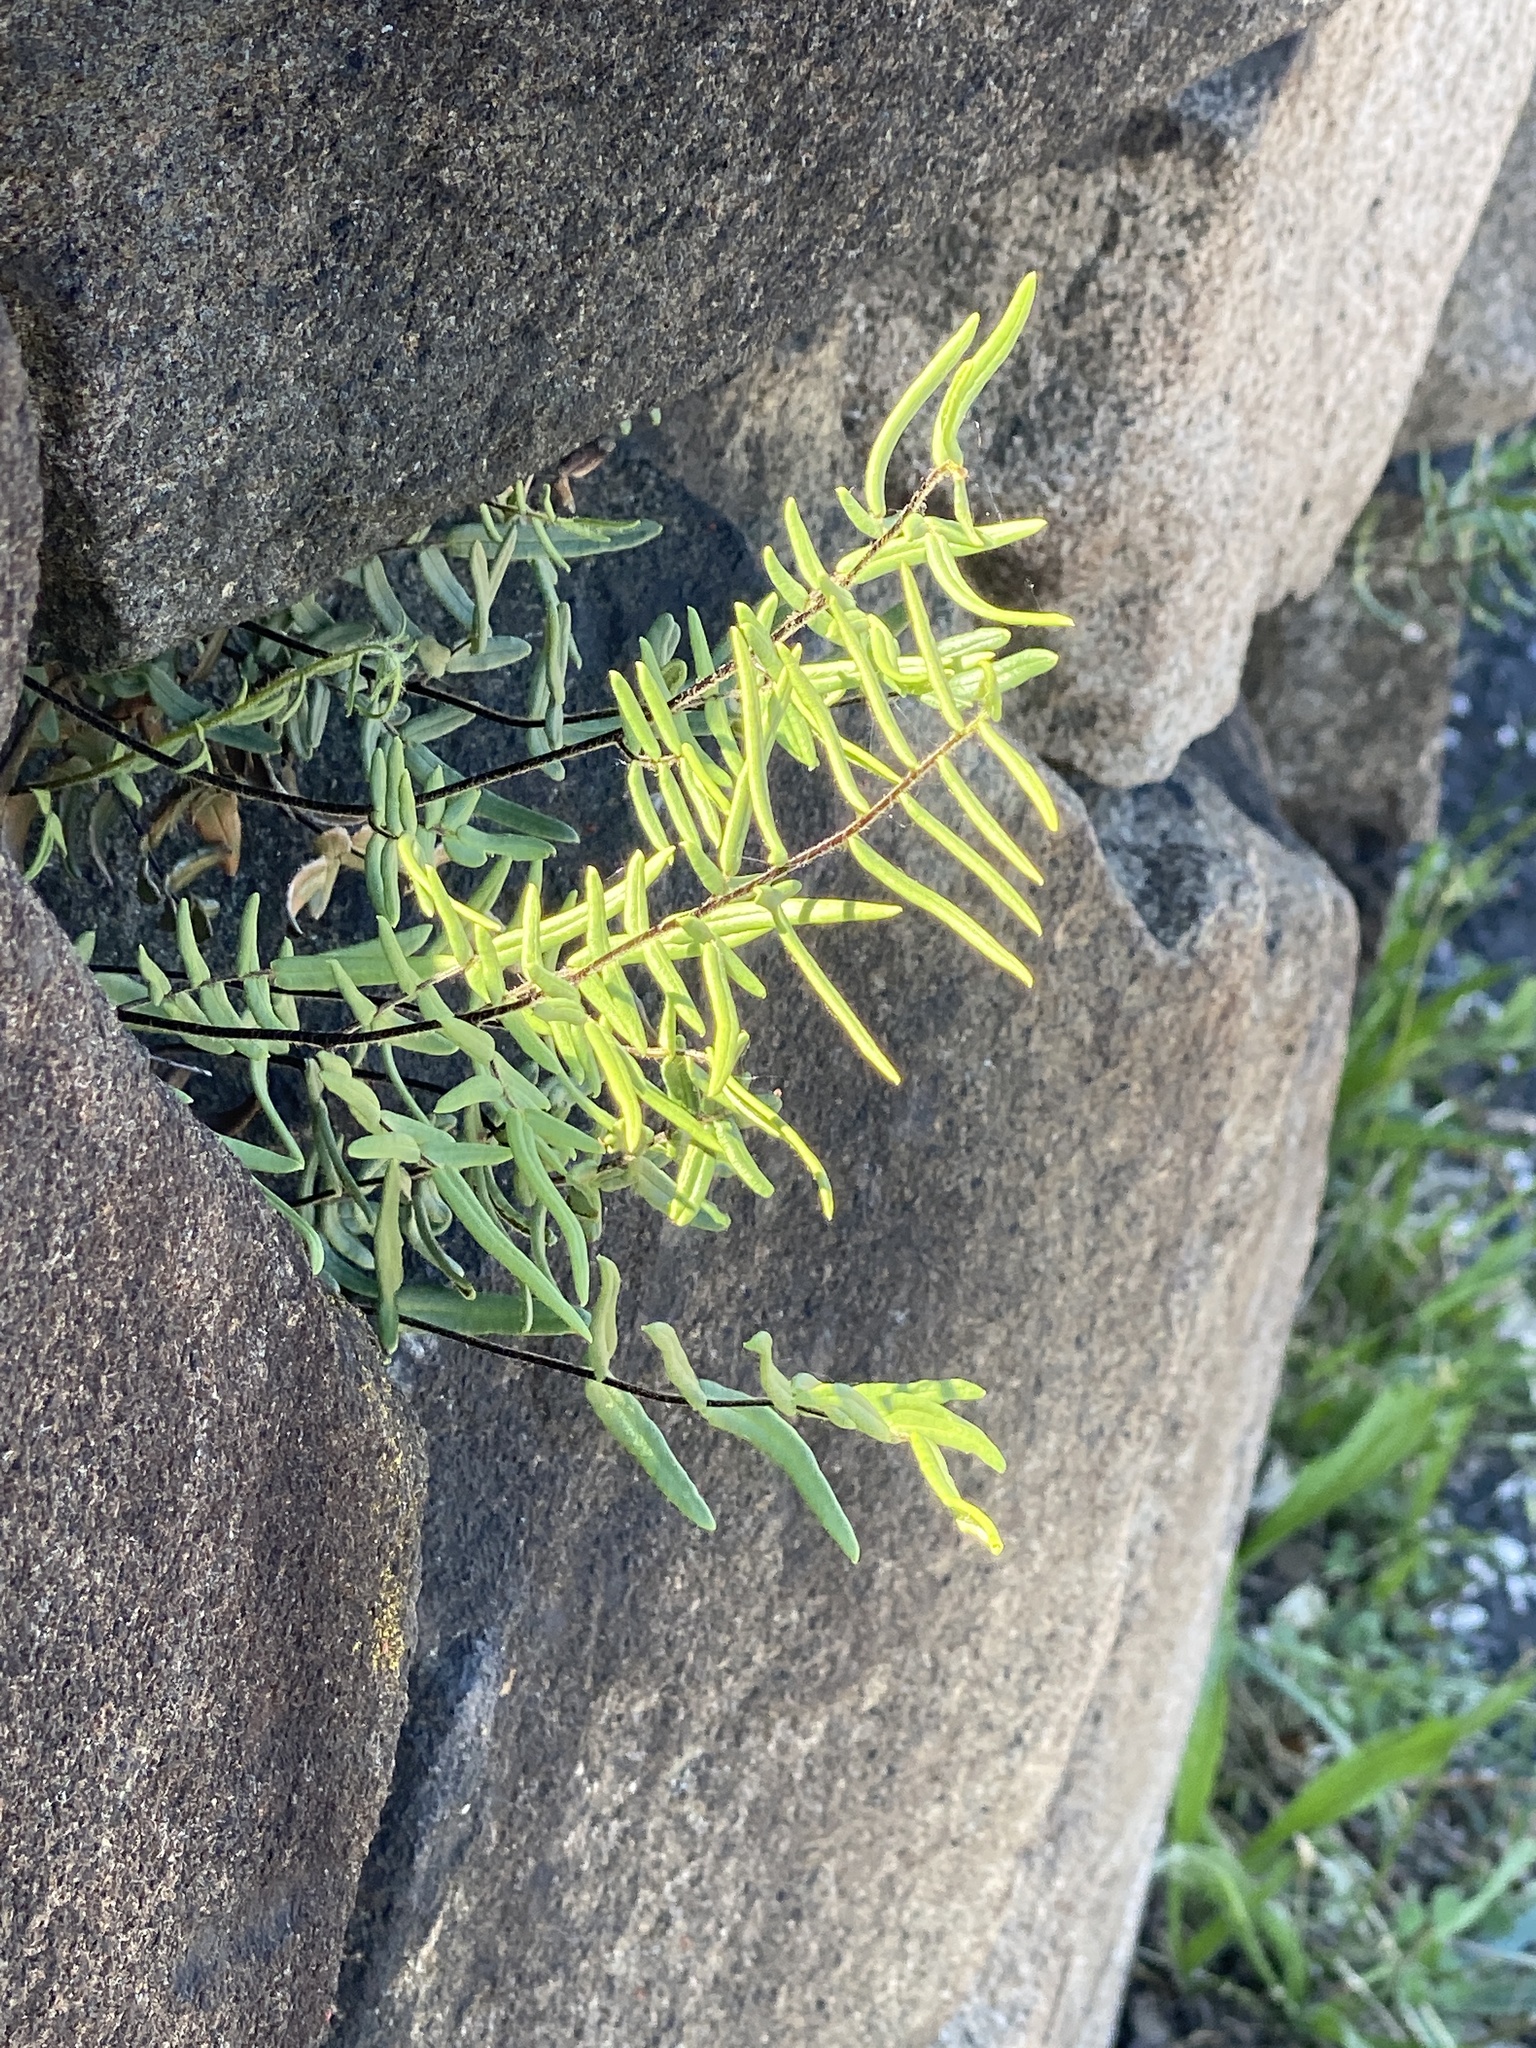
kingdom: Plantae
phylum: Tracheophyta
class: Polypodiopsida
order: Polypodiales
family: Pteridaceae
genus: Pellaea
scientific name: Pellaea atropurpurea
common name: Hairy cliffbrake
